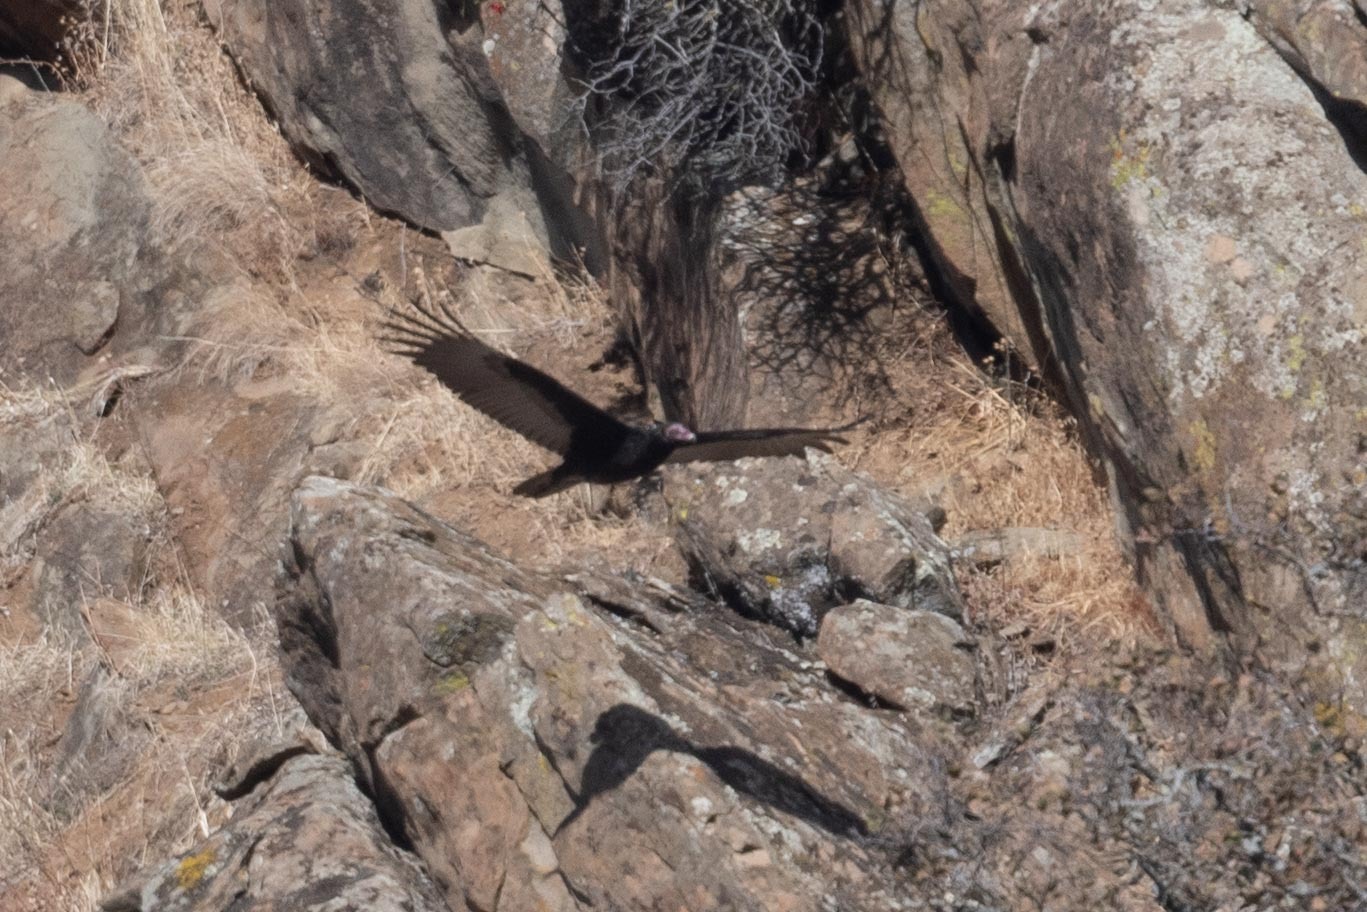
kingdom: Animalia
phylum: Chordata
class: Aves
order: Accipitriformes
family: Cathartidae
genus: Cathartes
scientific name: Cathartes aura
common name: Turkey vulture
